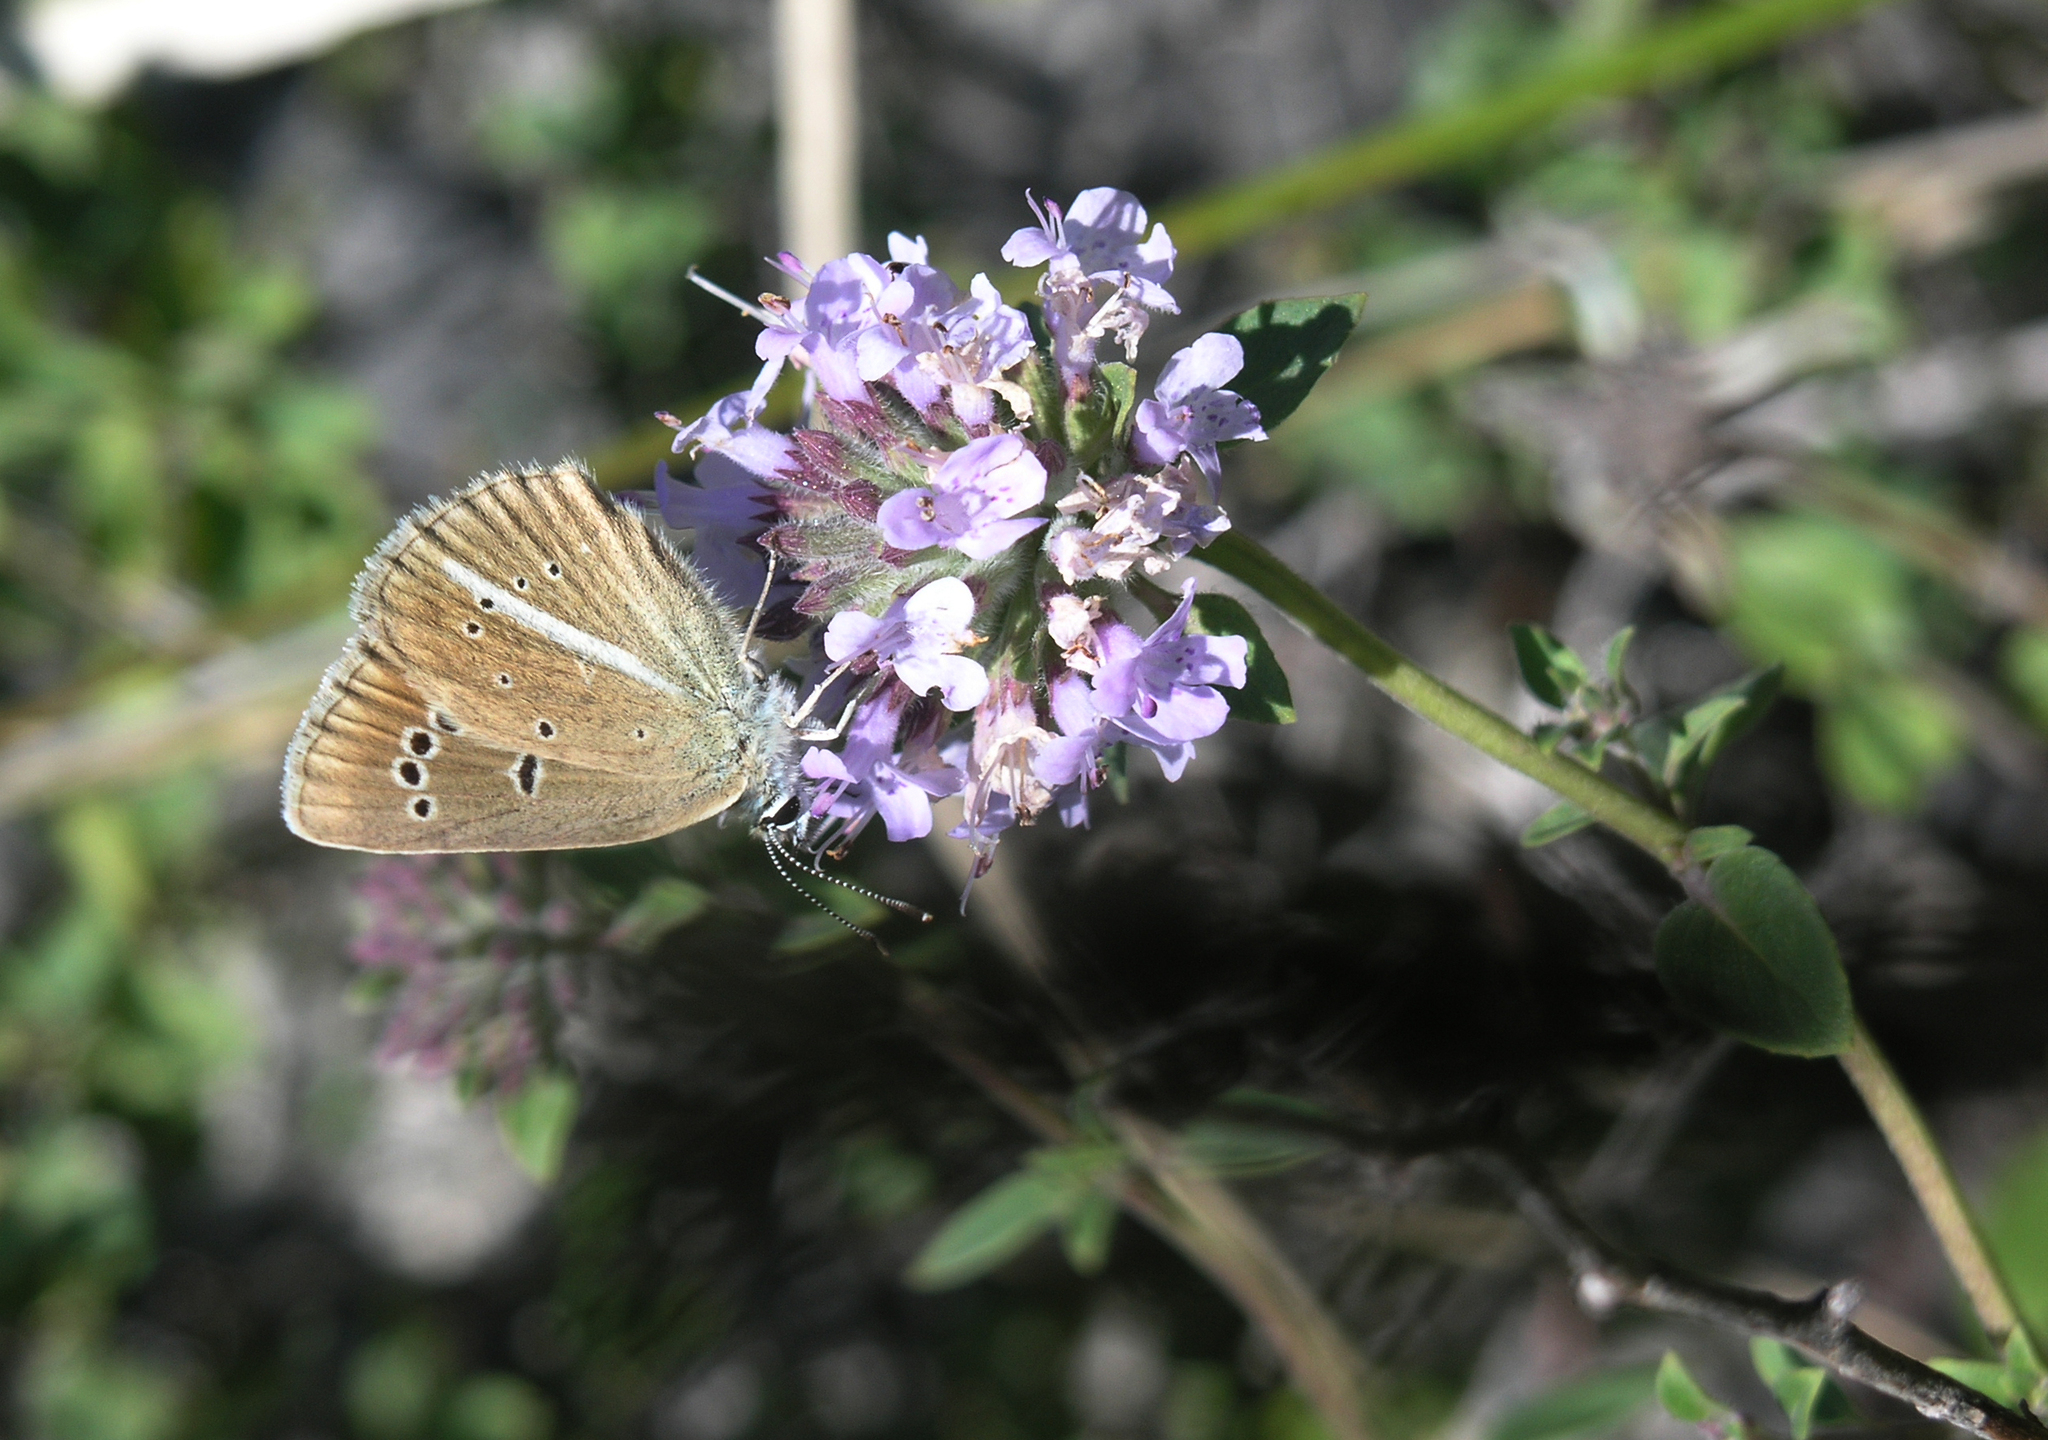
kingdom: Animalia
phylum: Arthropoda
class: Insecta
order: Lepidoptera
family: Lycaenidae
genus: Agrodiaetus
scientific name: Agrodiaetus damon
